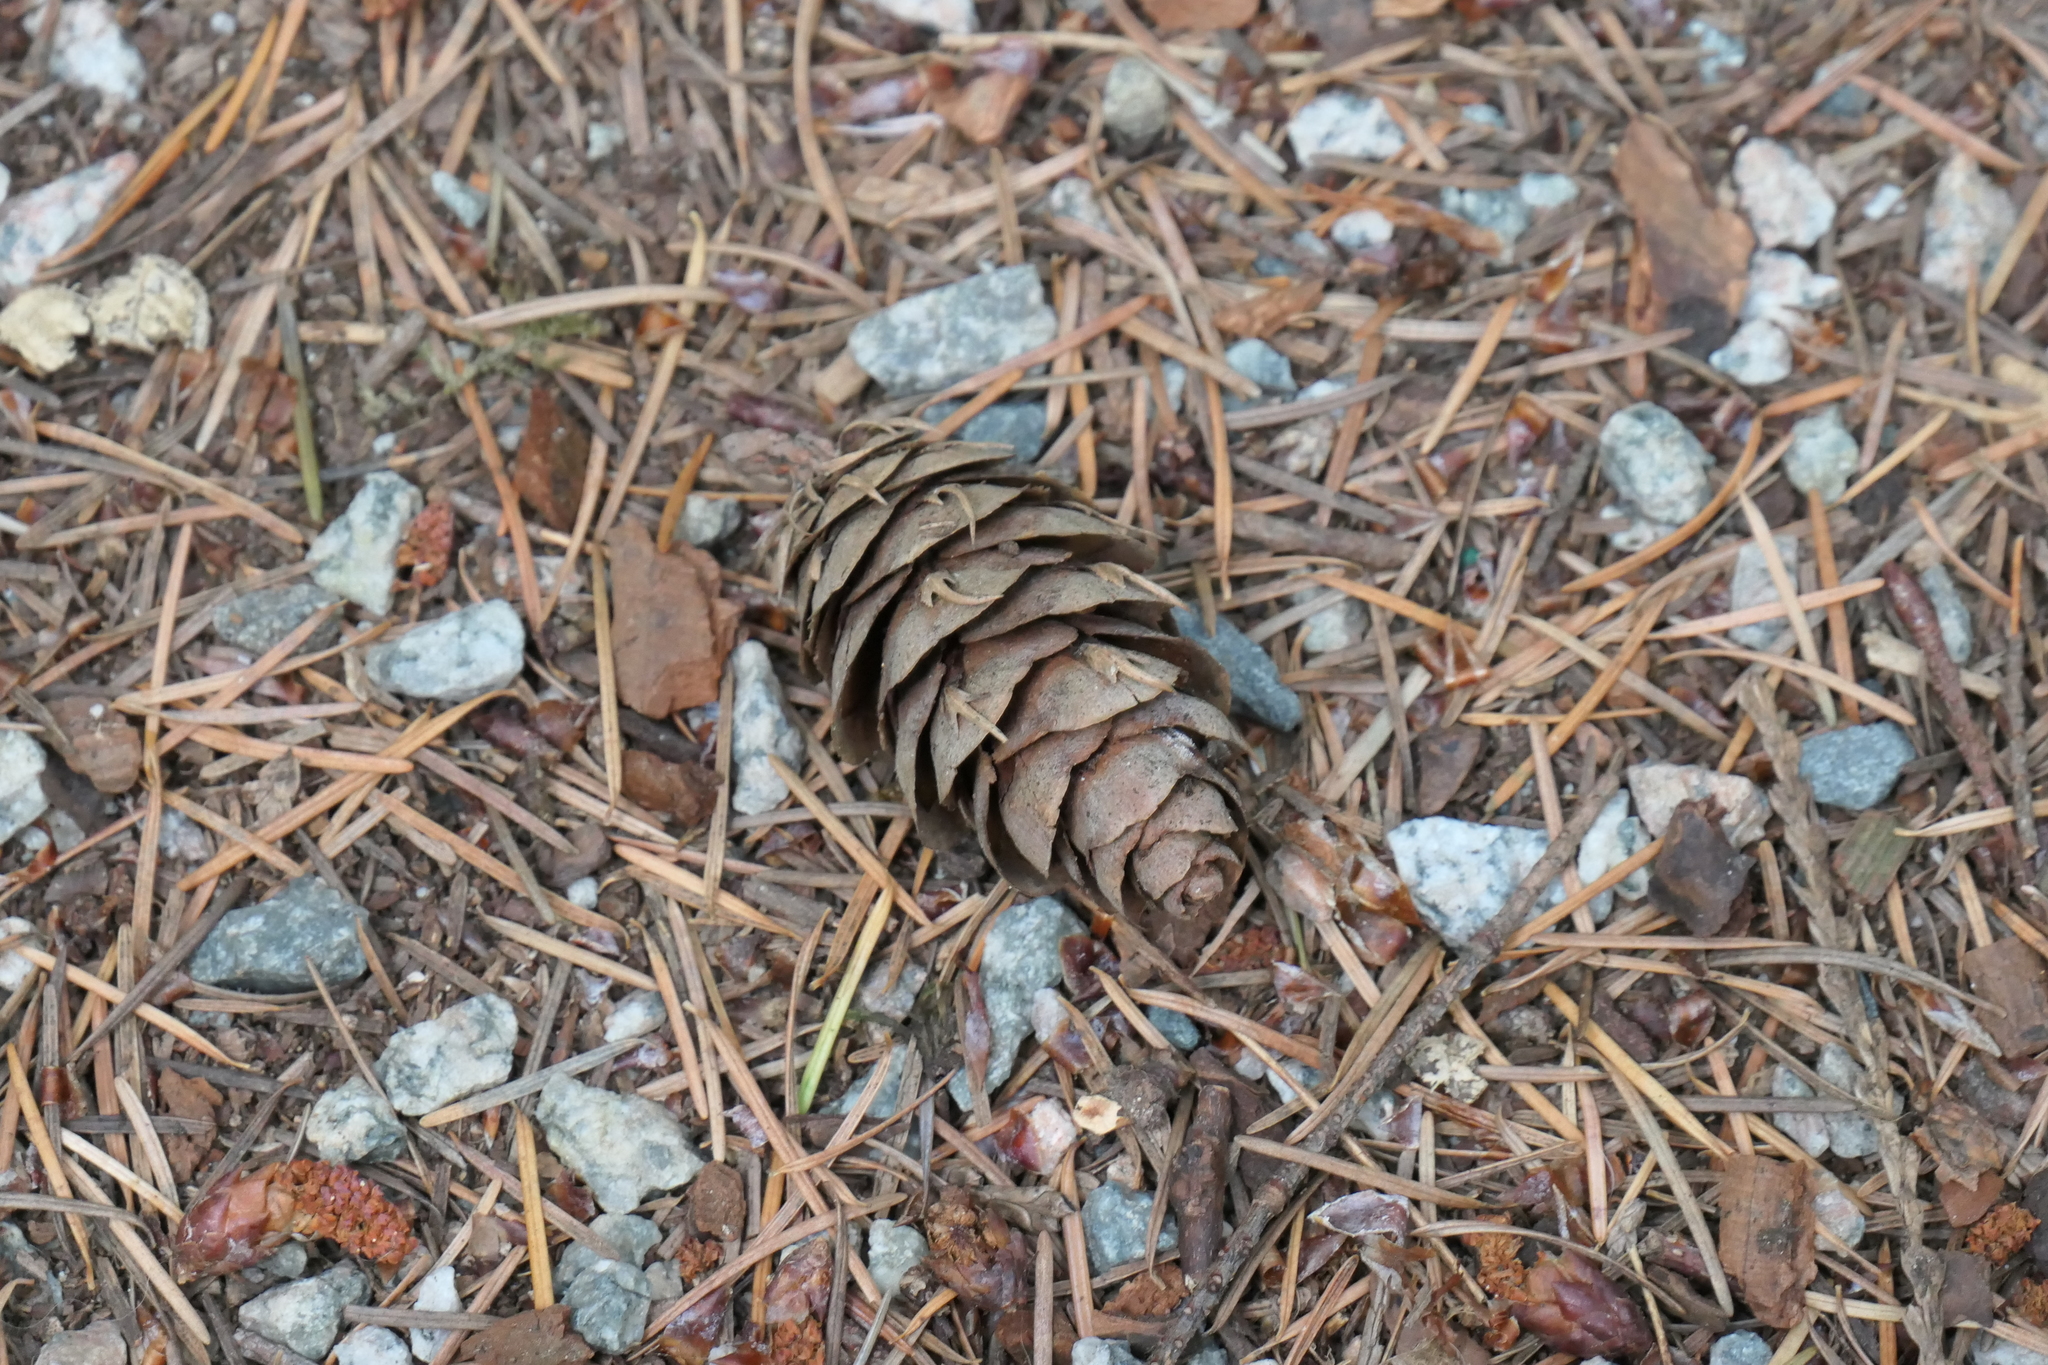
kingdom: Plantae
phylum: Tracheophyta
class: Pinopsida
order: Pinales
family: Pinaceae
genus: Pseudotsuga
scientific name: Pseudotsuga menziesii
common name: Douglas fir
